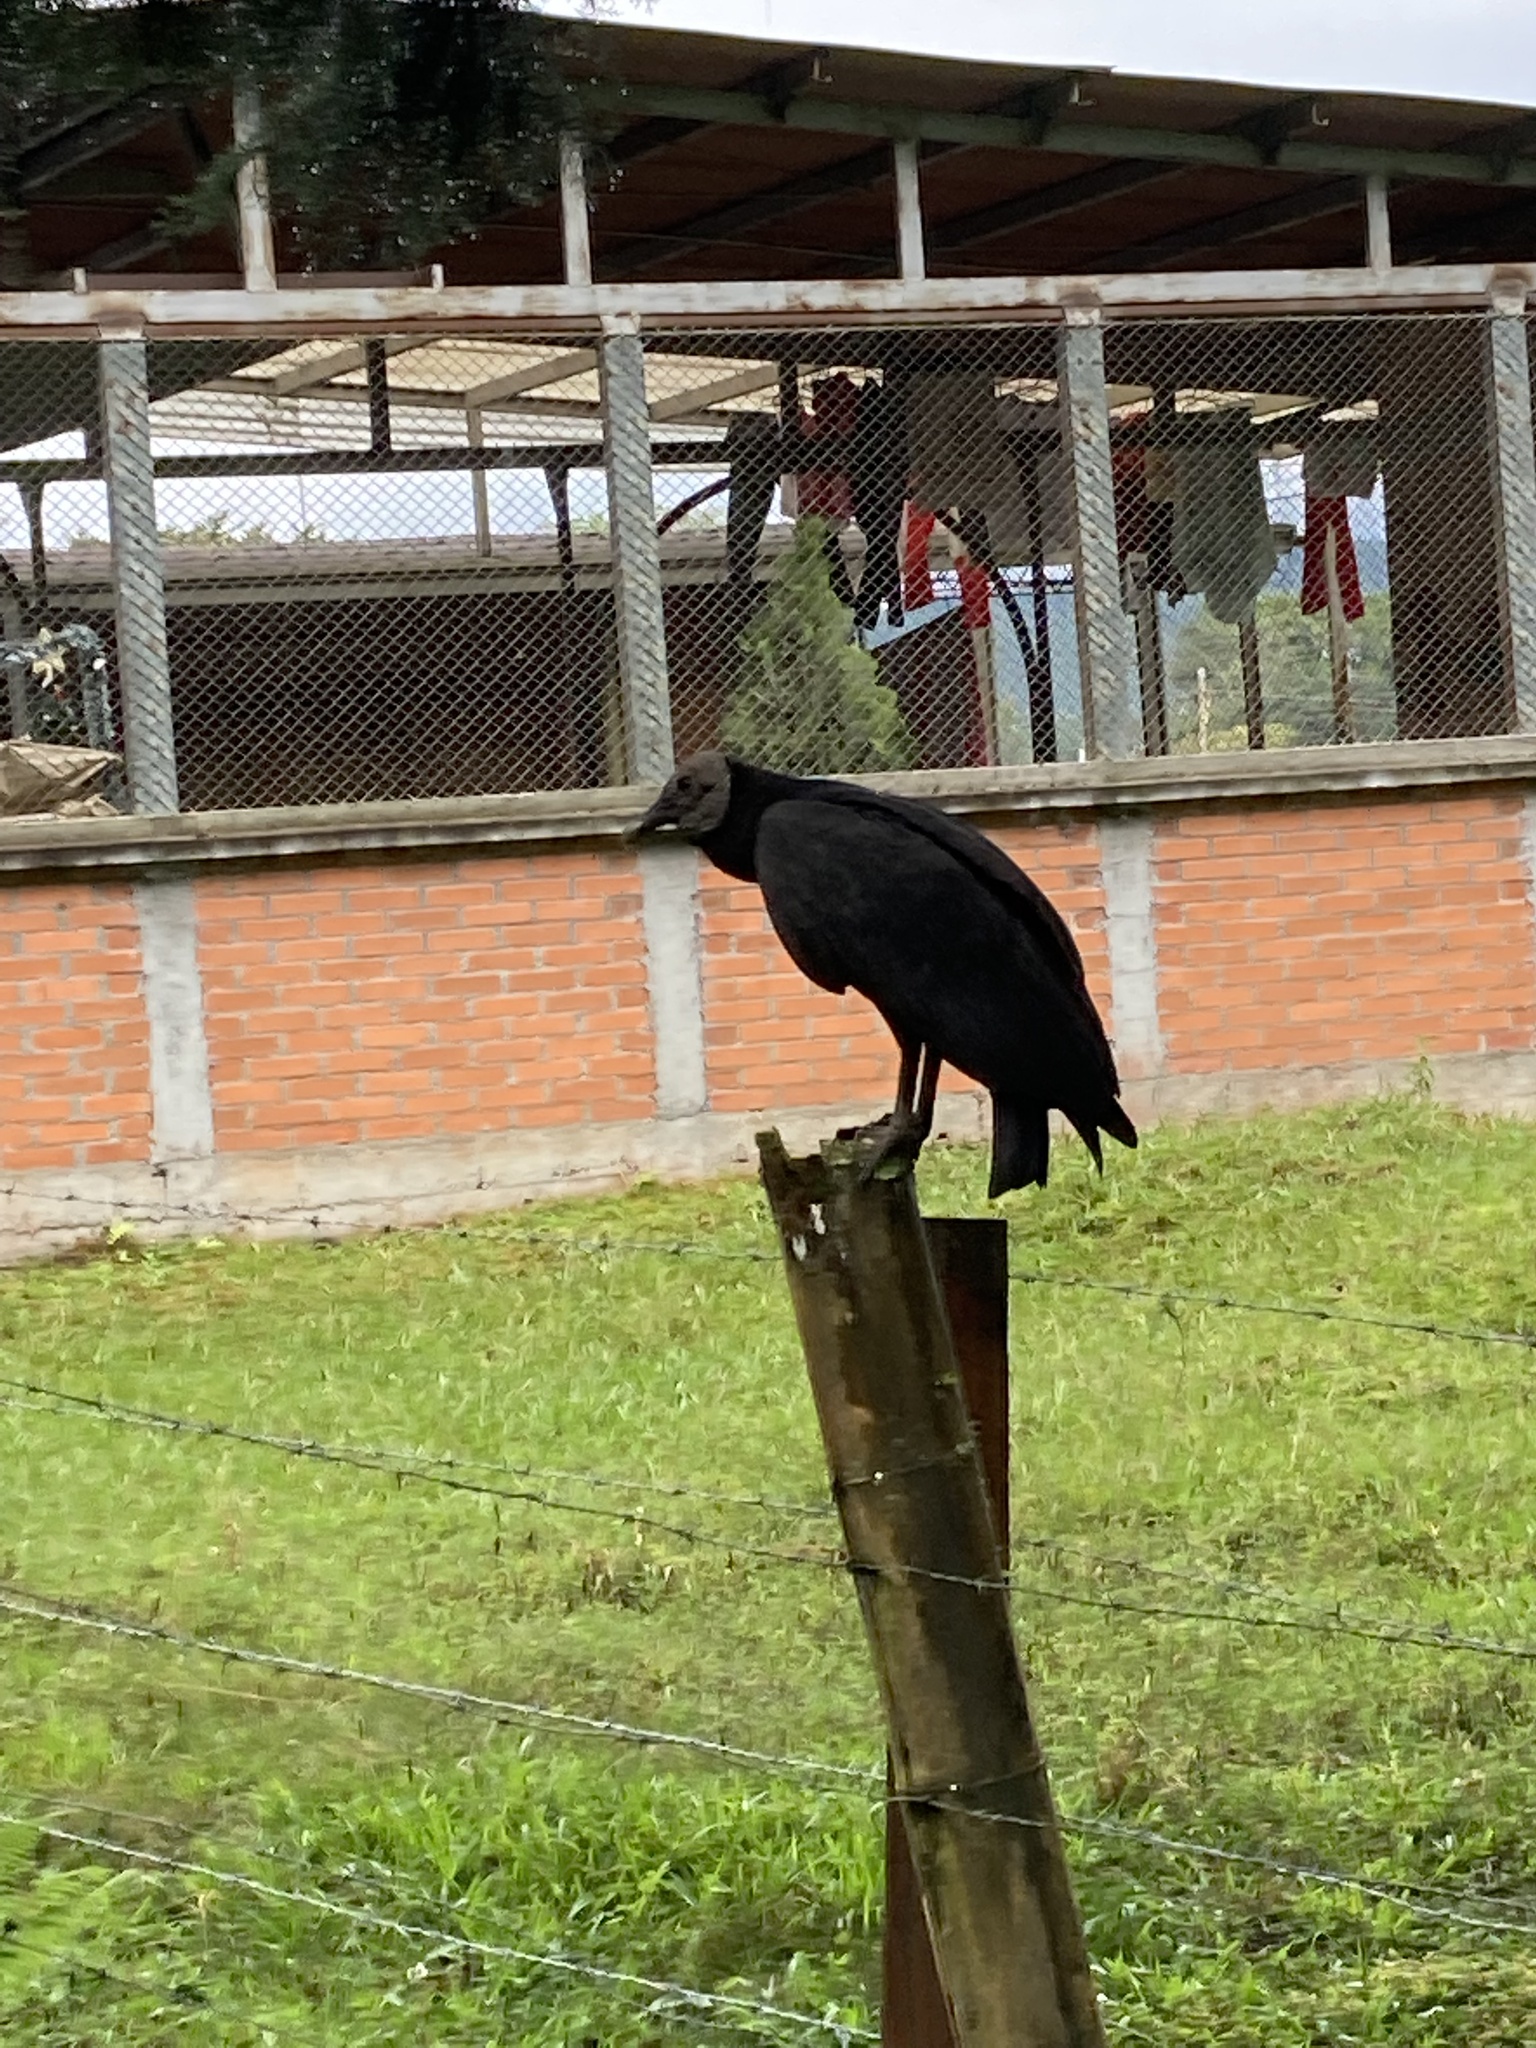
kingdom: Animalia
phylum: Chordata
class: Aves
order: Accipitriformes
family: Cathartidae
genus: Coragyps
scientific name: Coragyps atratus
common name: Black vulture
